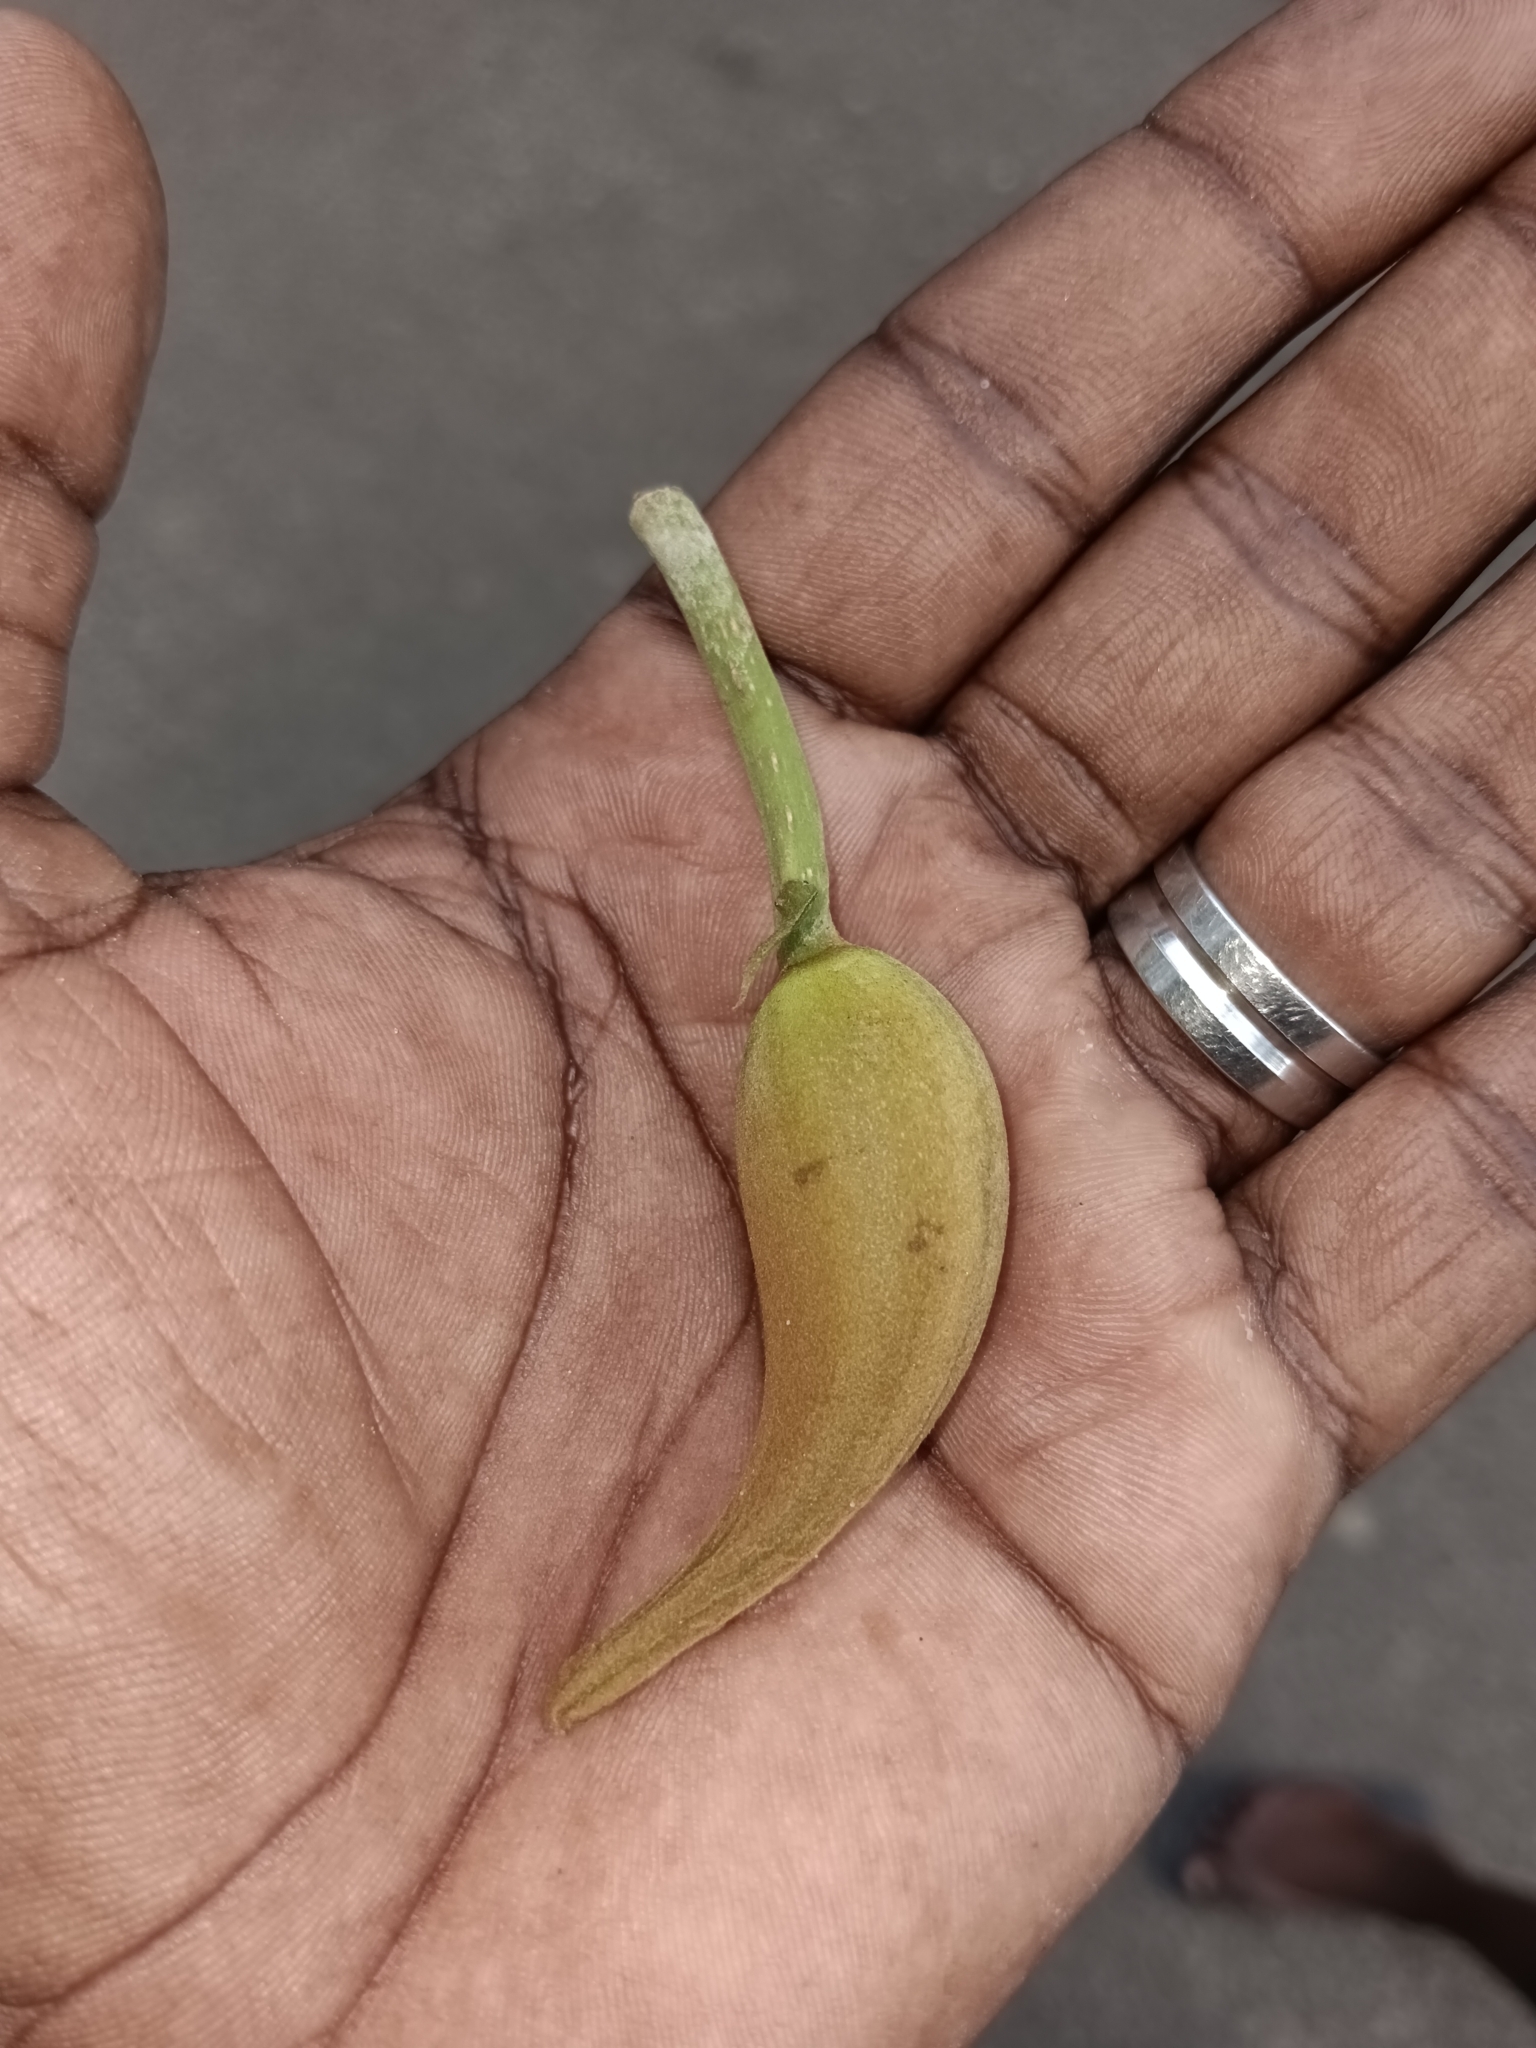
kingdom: Plantae
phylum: Tracheophyta
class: Magnoliopsida
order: Lamiales
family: Bignoniaceae
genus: Spathodea
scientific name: Spathodea campanulata
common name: African tuliptree
